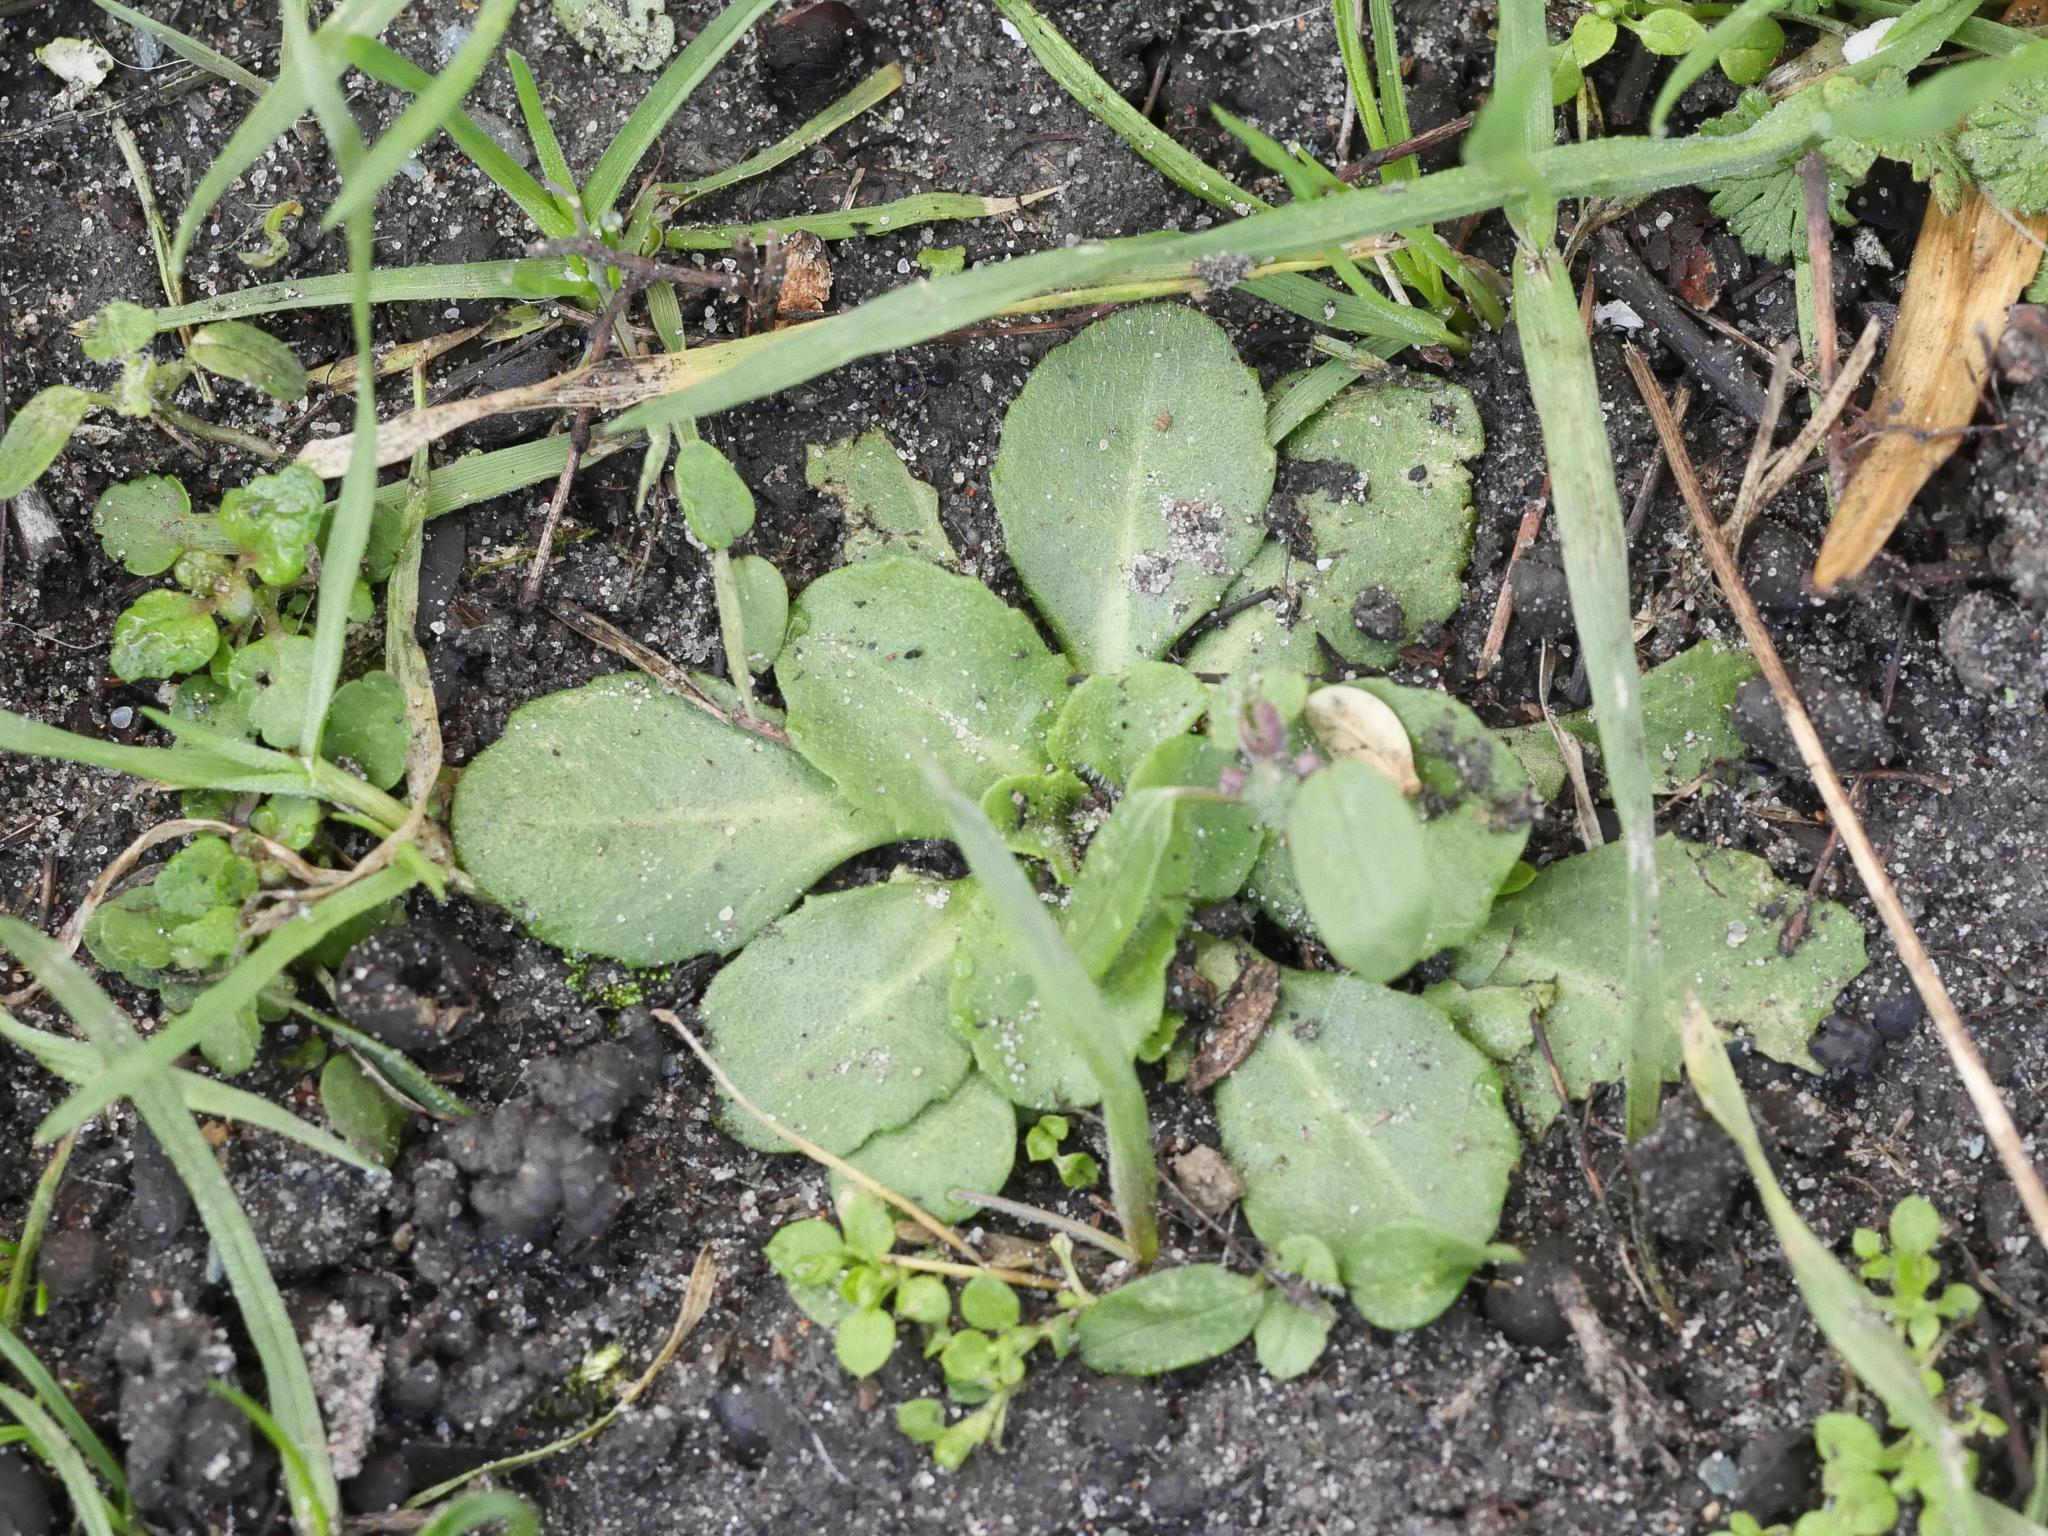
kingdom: Plantae
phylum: Tracheophyta
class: Magnoliopsida
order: Asterales
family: Asteraceae
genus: Bellis
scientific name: Bellis perennis
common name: Lawndaisy
